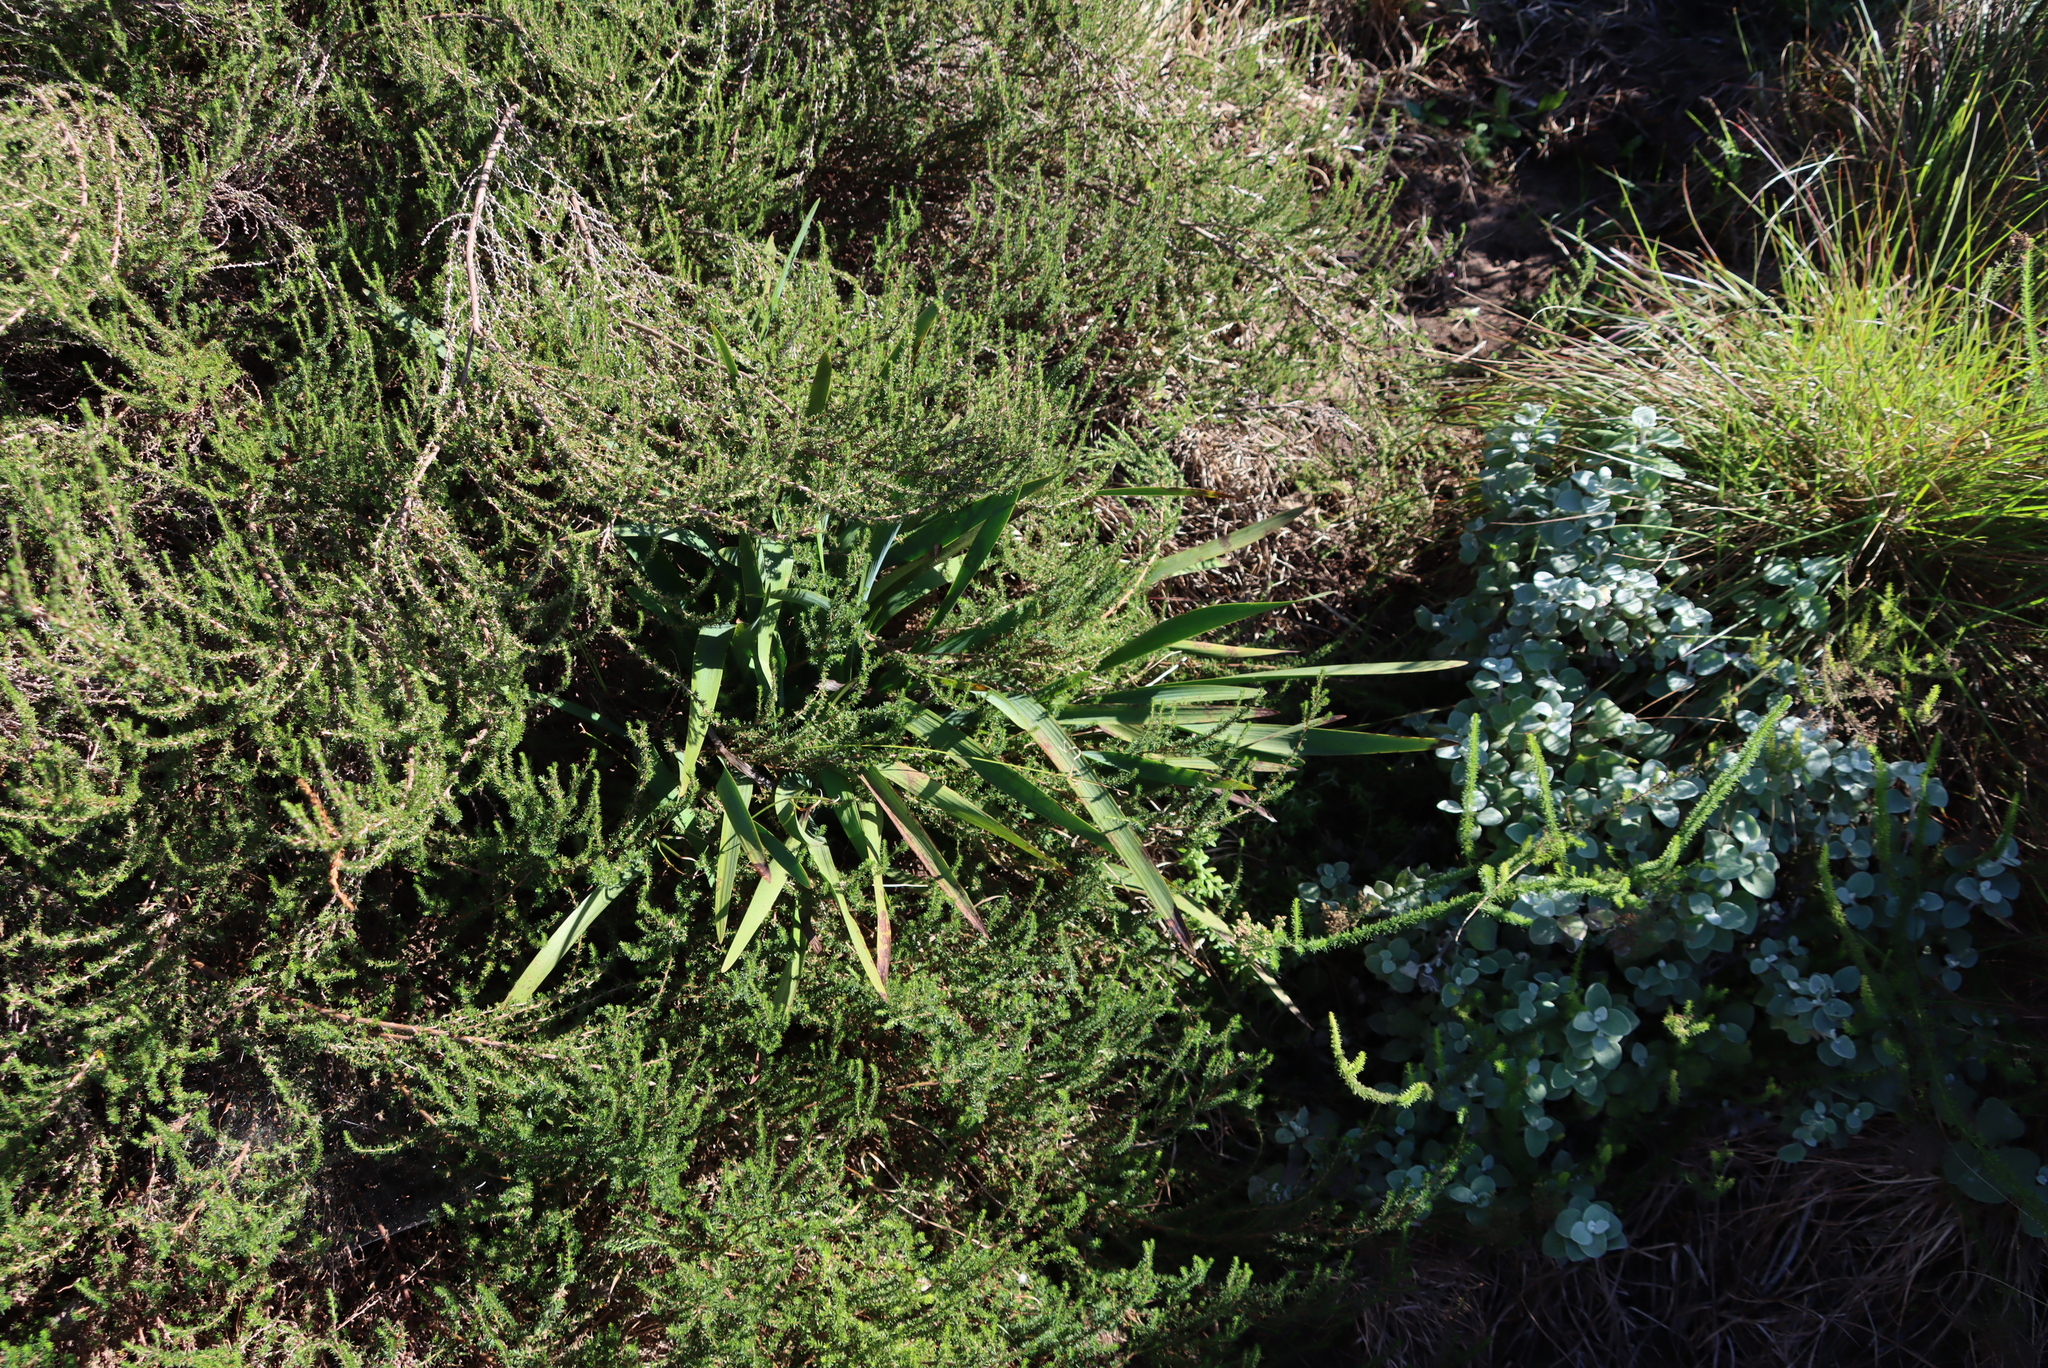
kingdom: Plantae
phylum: Tracheophyta
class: Magnoliopsida
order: Rosales
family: Rosaceae
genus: Cliffortia
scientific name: Cliffortia linearifolia
